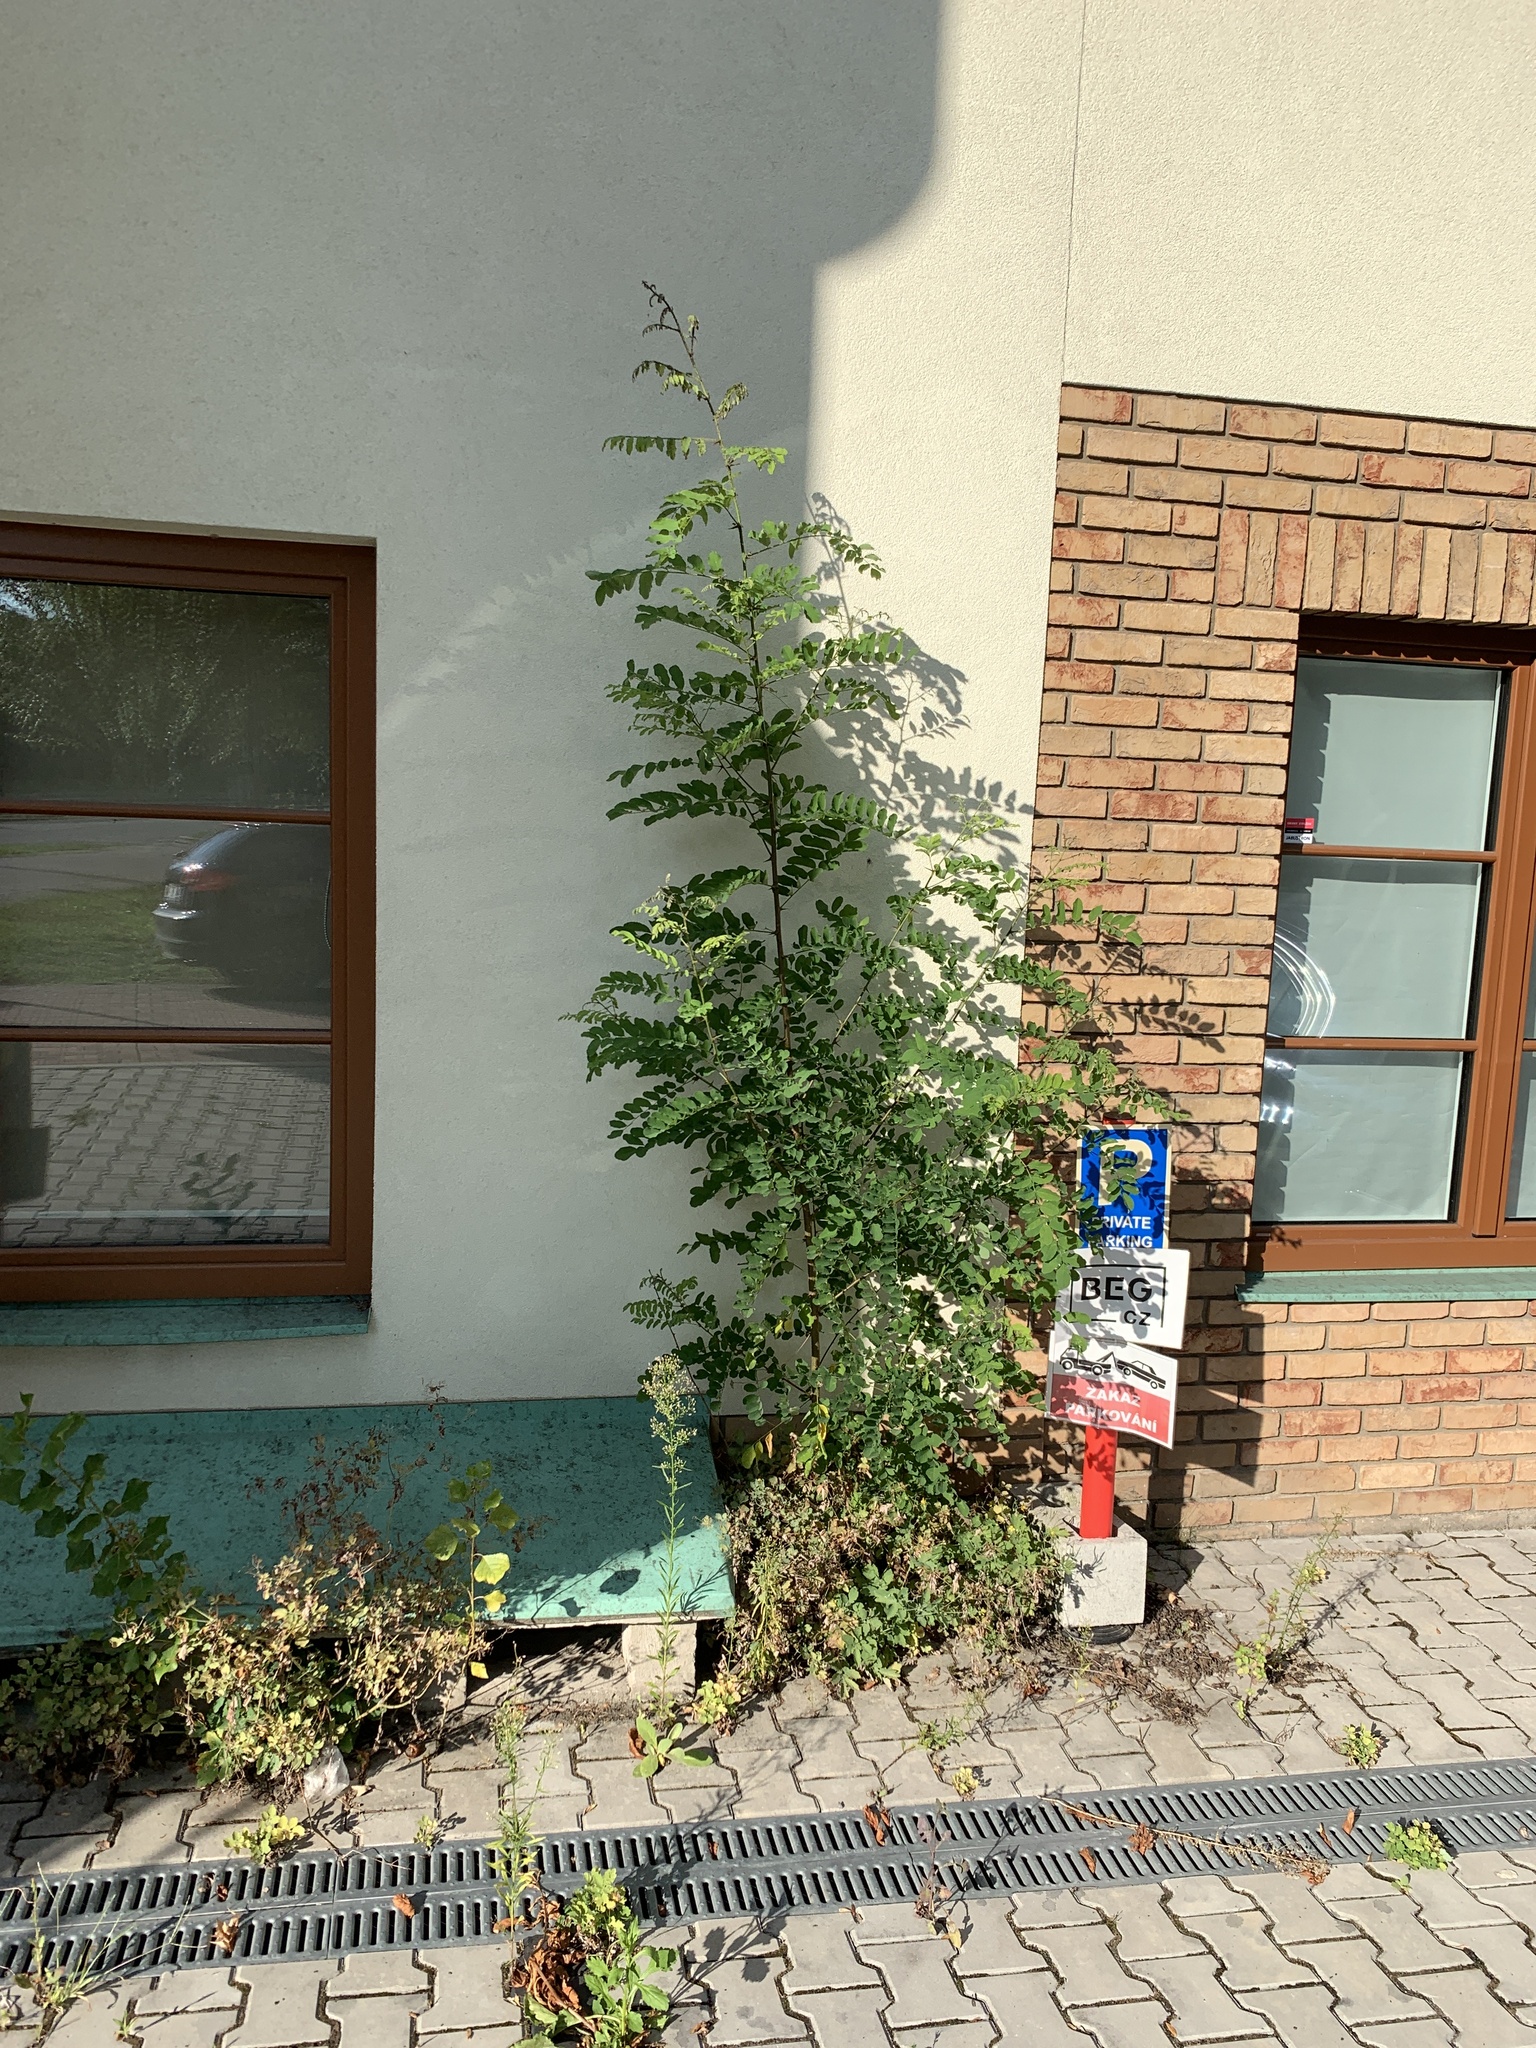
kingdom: Plantae
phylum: Tracheophyta
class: Magnoliopsida
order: Fabales
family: Fabaceae
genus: Robinia
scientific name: Robinia pseudoacacia
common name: Black locust
